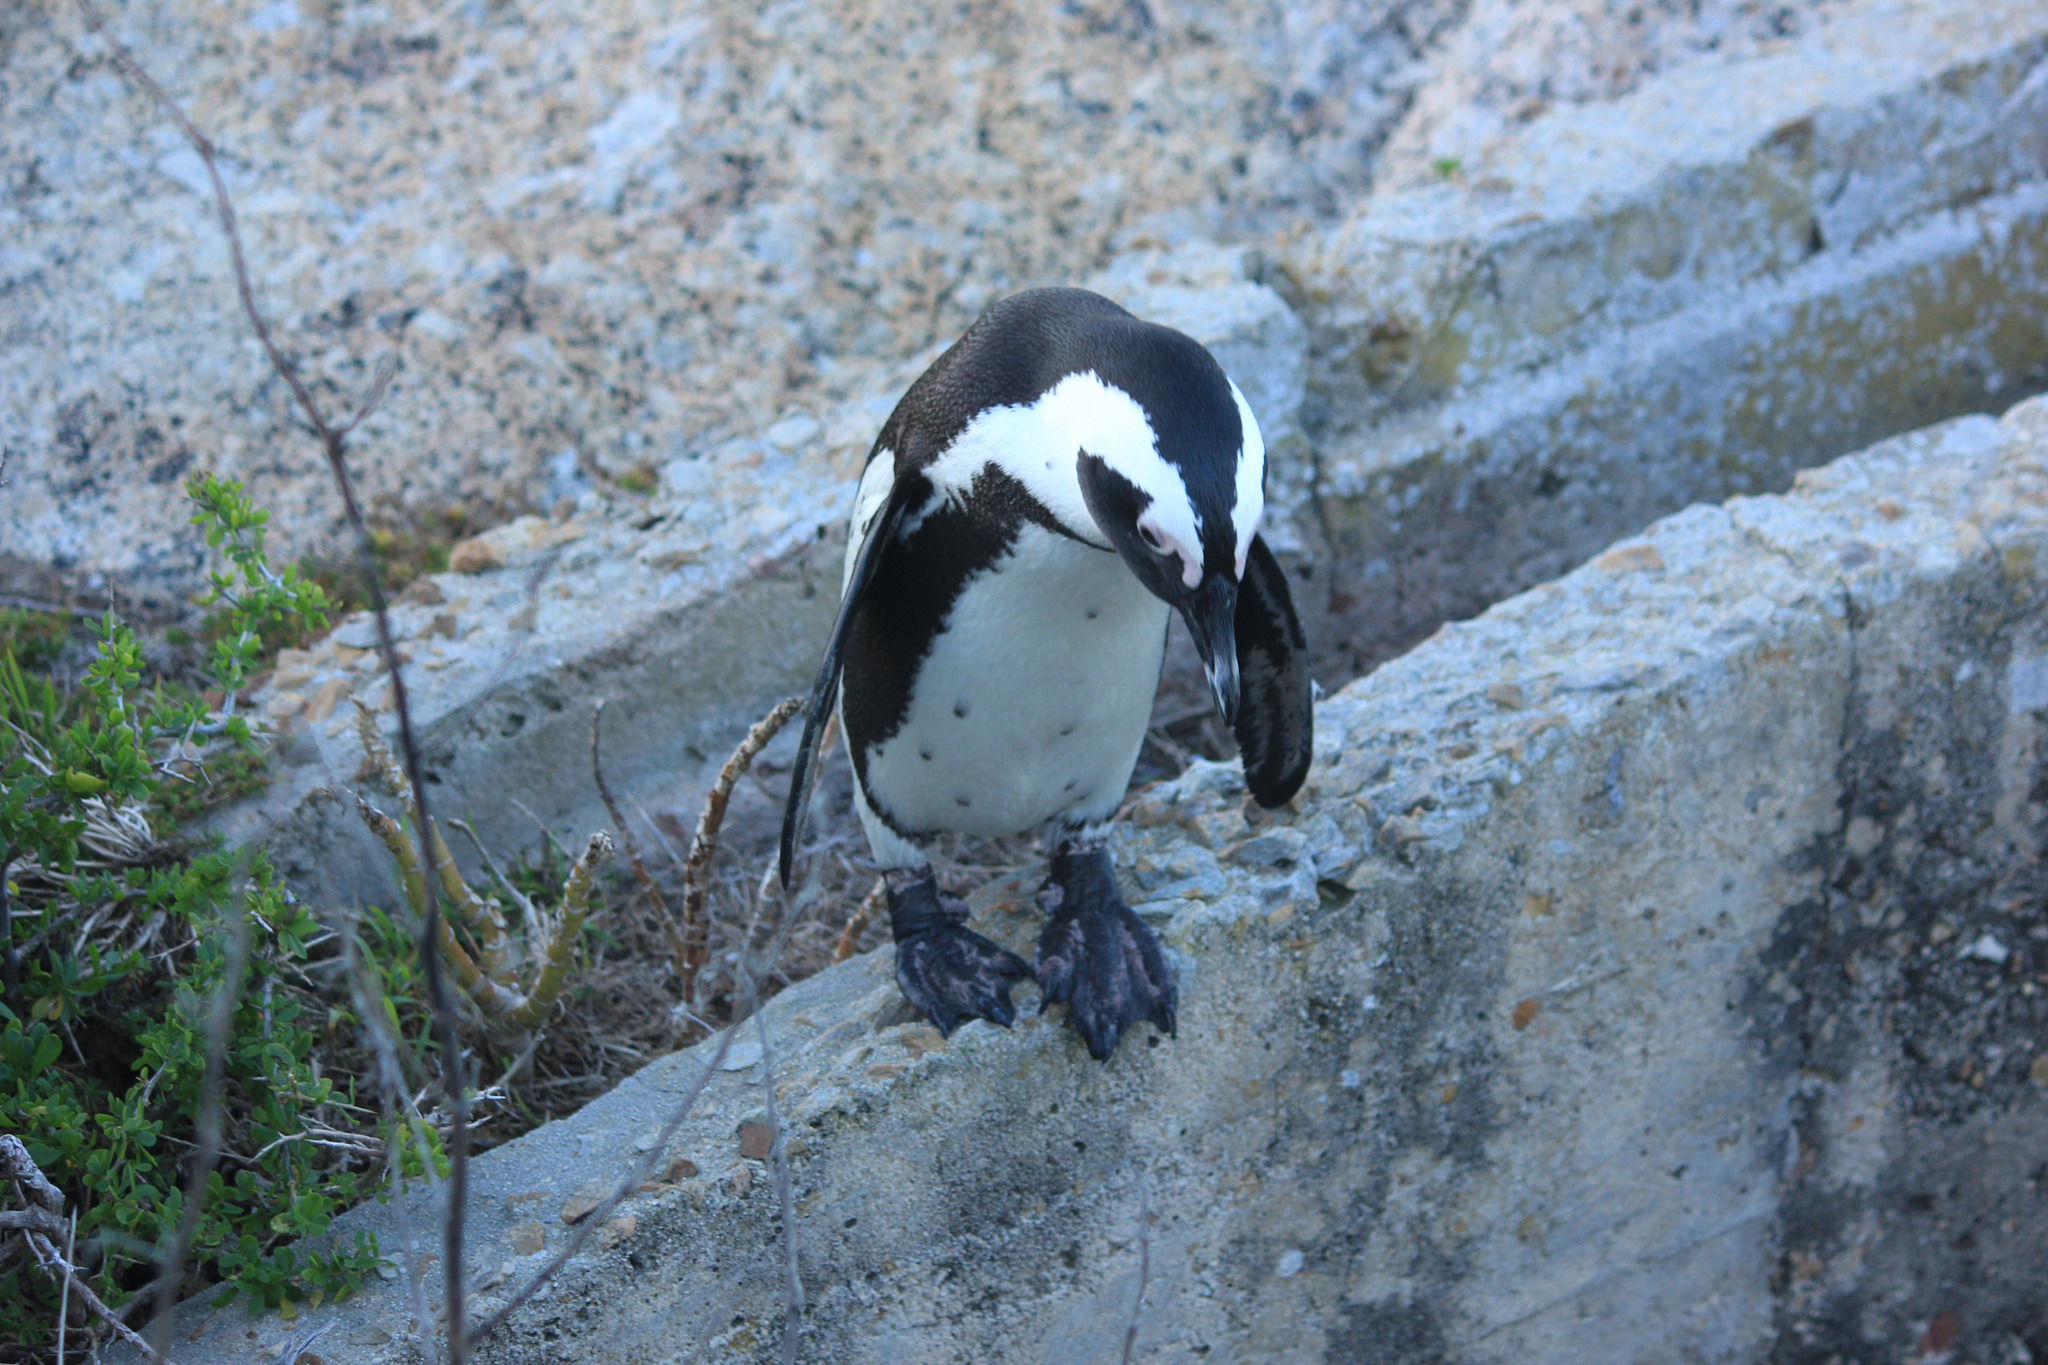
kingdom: Animalia
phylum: Chordata
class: Aves
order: Sphenisciformes
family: Spheniscidae
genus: Spheniscus
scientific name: Spheniscus demersus
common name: African penguin
